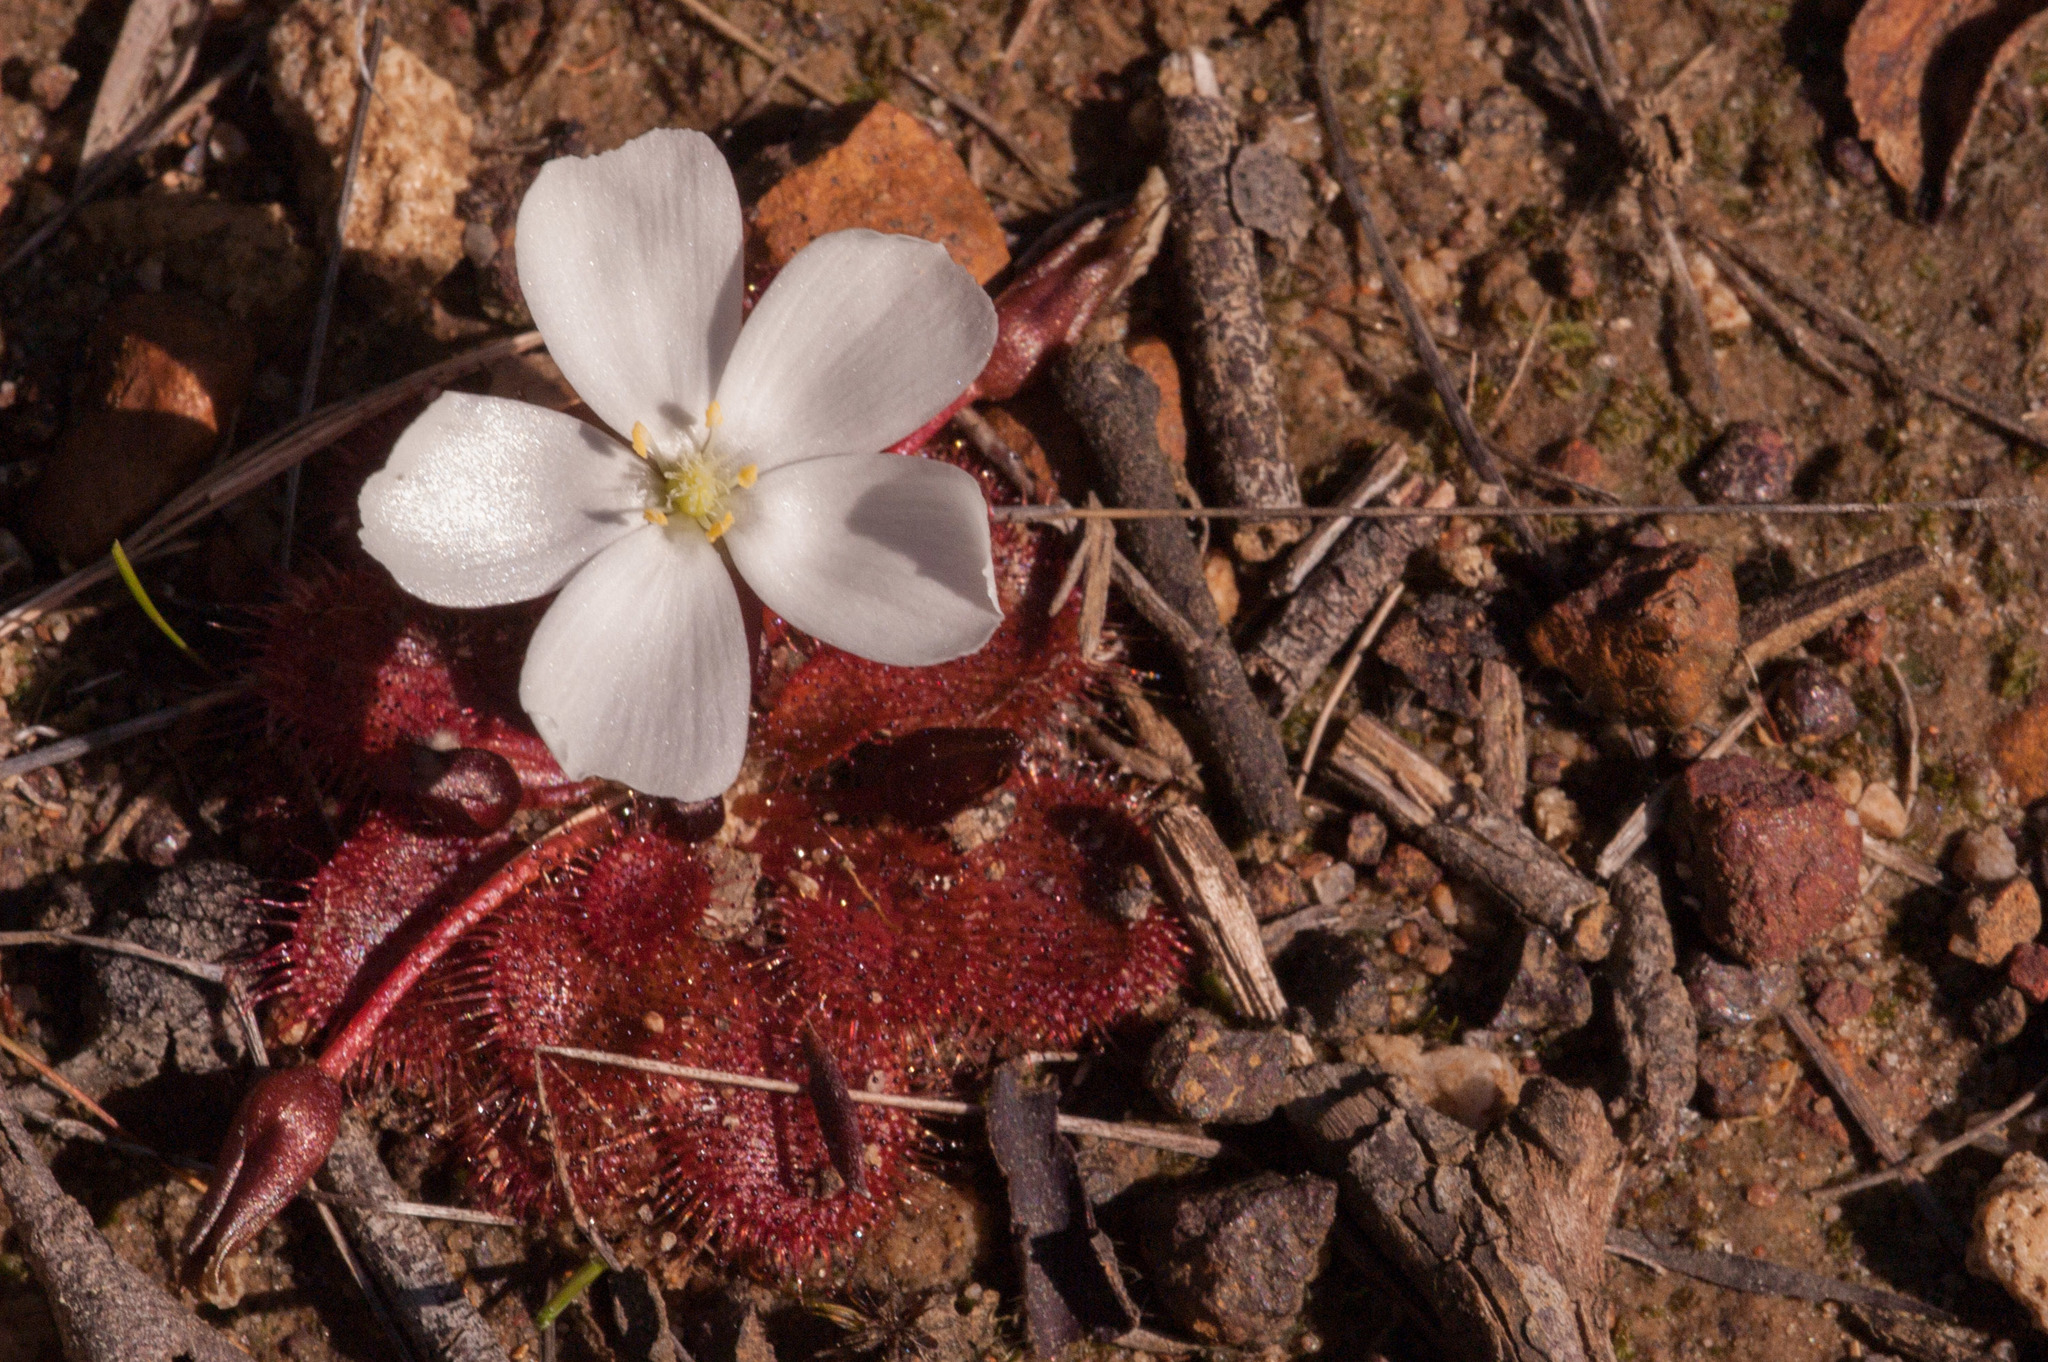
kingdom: Plantae
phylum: Tracheophyta
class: Magnoliopsida
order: Caryophyllales
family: Droseraceae
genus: Drosera
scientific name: Drosera whittakeri
